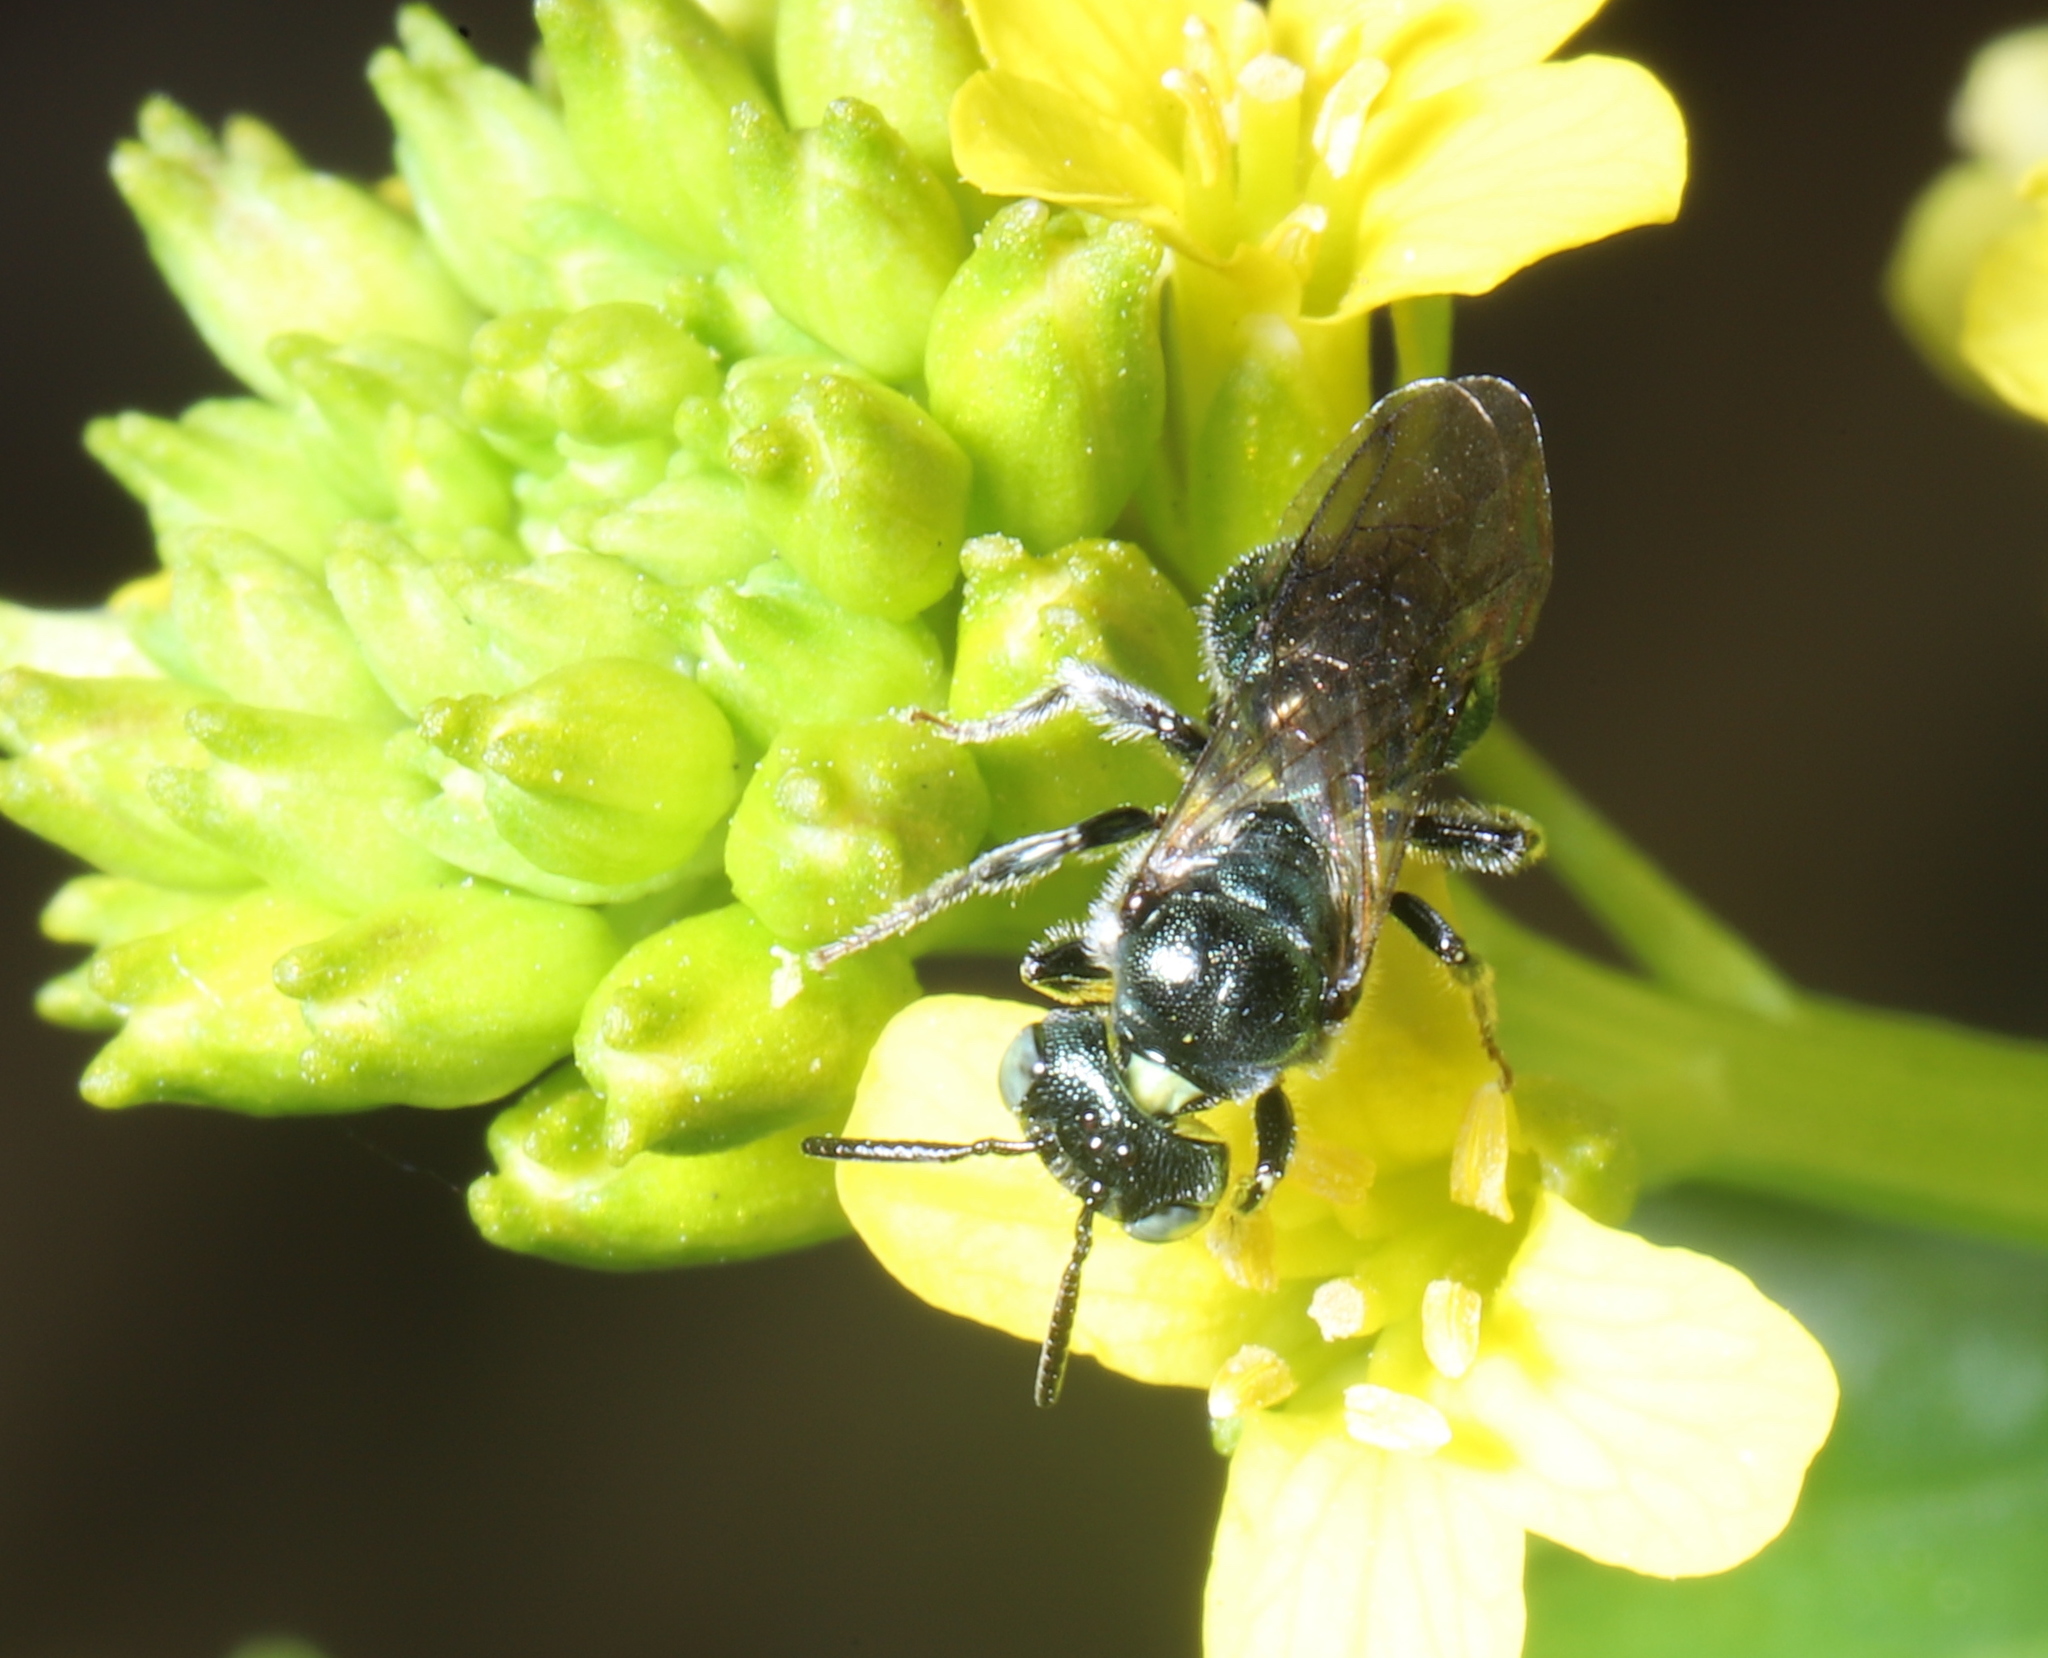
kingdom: Animalia
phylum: Arthropoda
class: Insecta
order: Hymenoptera
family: Apidae
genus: Zadontomerus
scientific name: Zadontomerus
